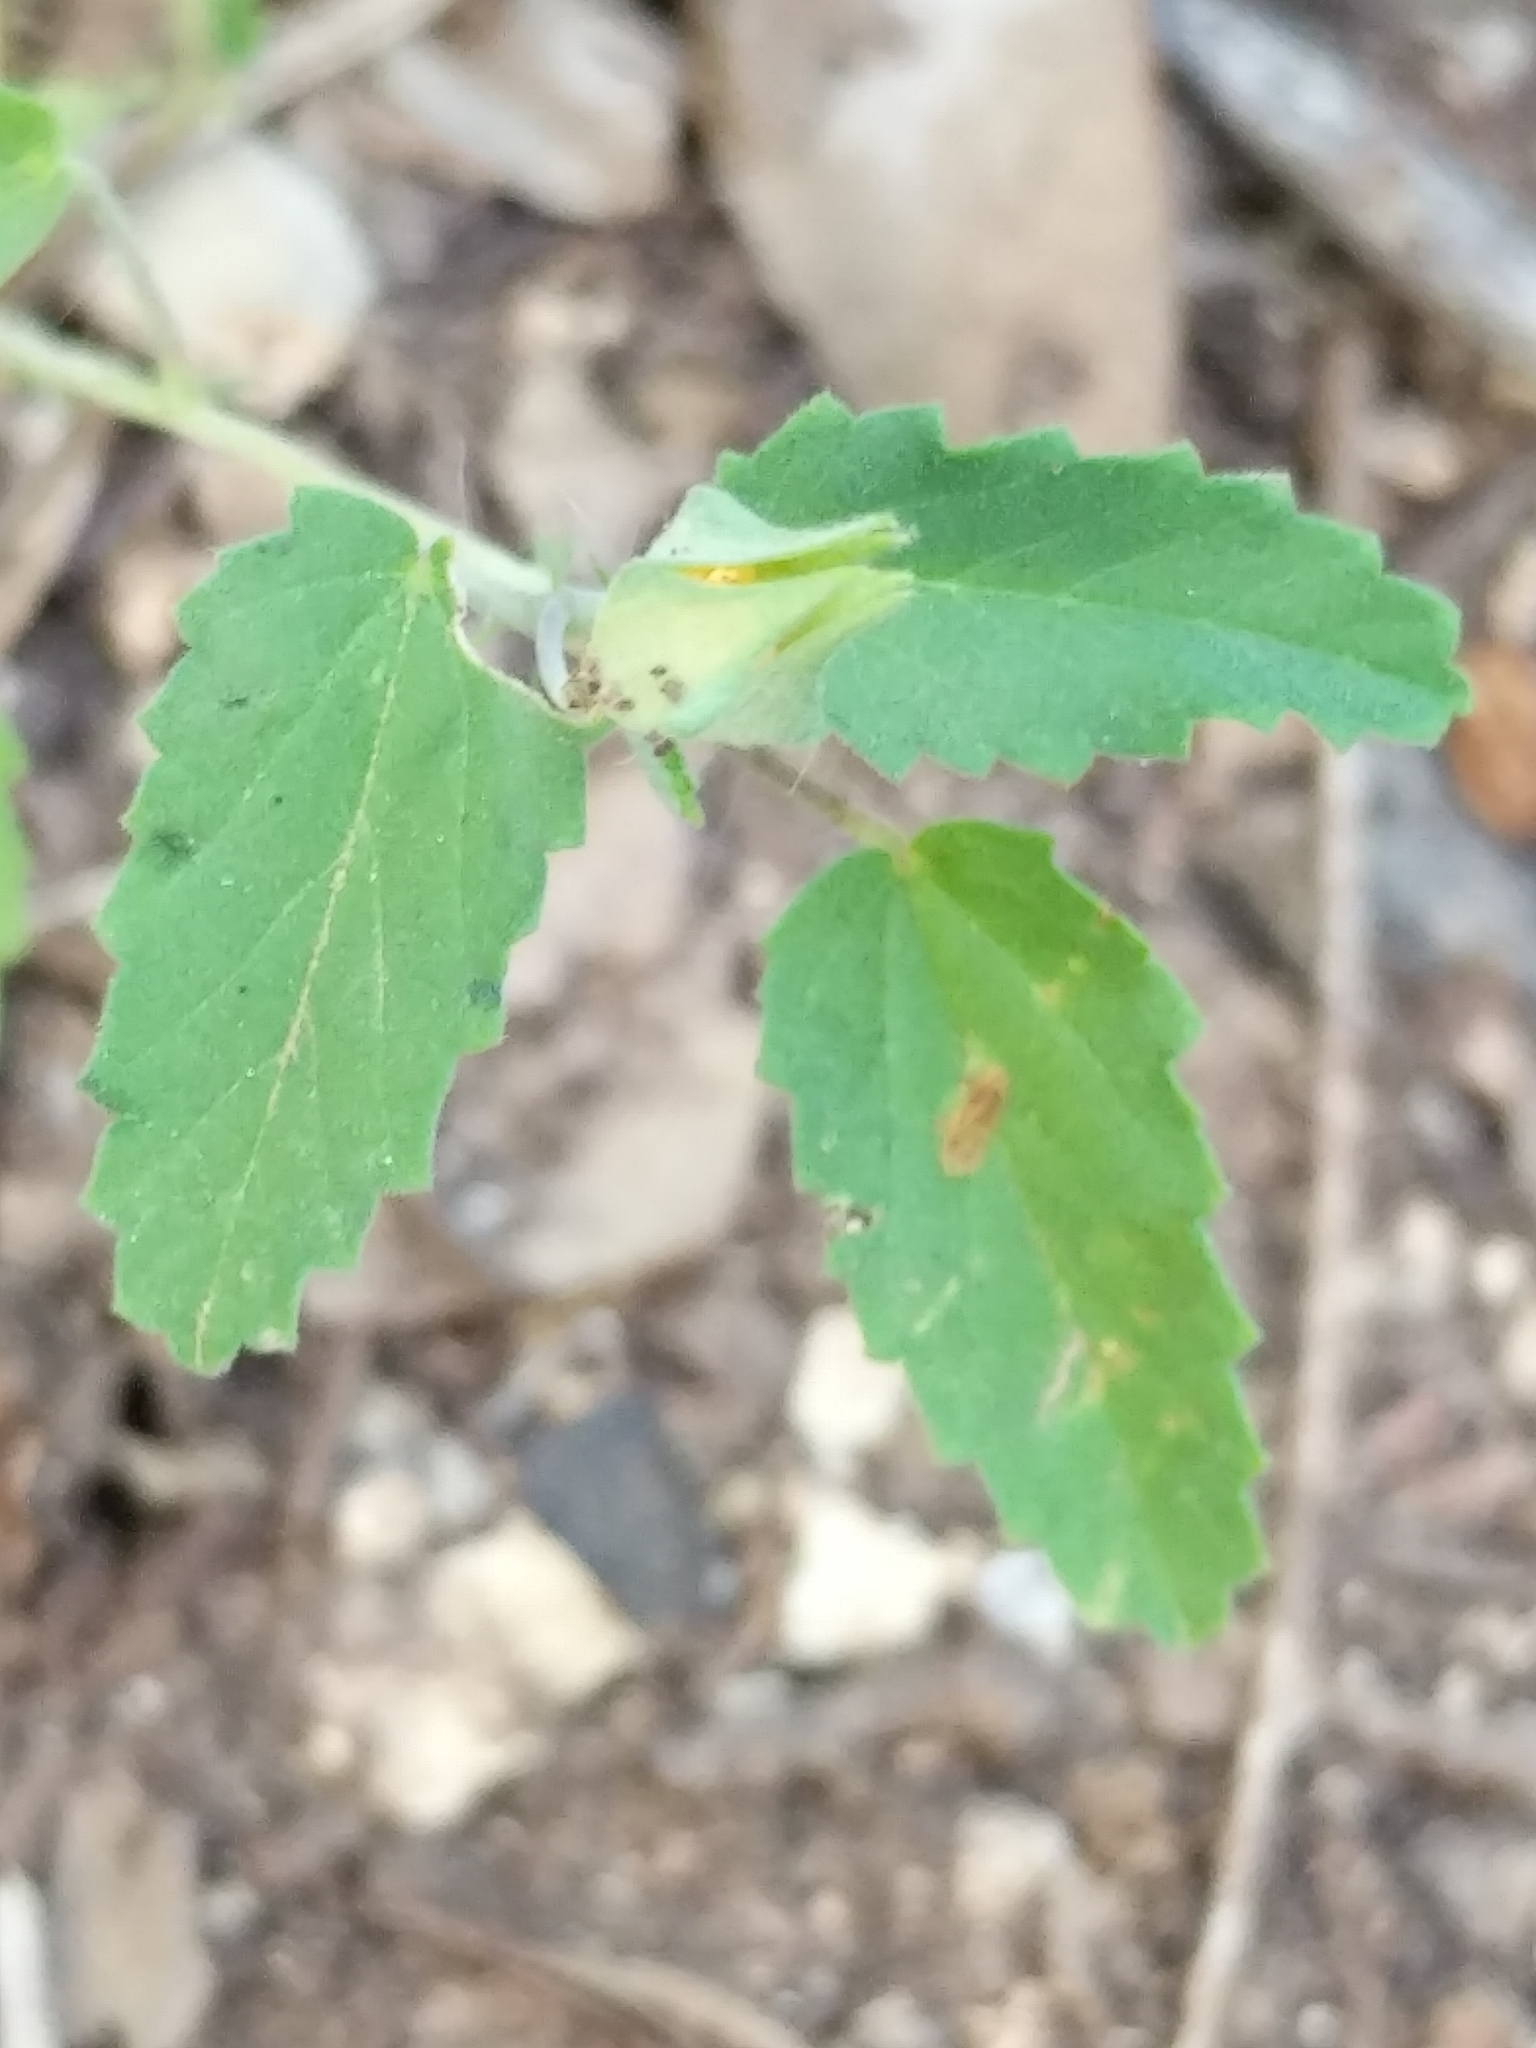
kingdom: Plantae
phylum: Tracheophyta
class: Magnoliopsida
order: Malvales
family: Malvaceae
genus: Sida
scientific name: Sida abutilifolia
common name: Spreading fanpetals
